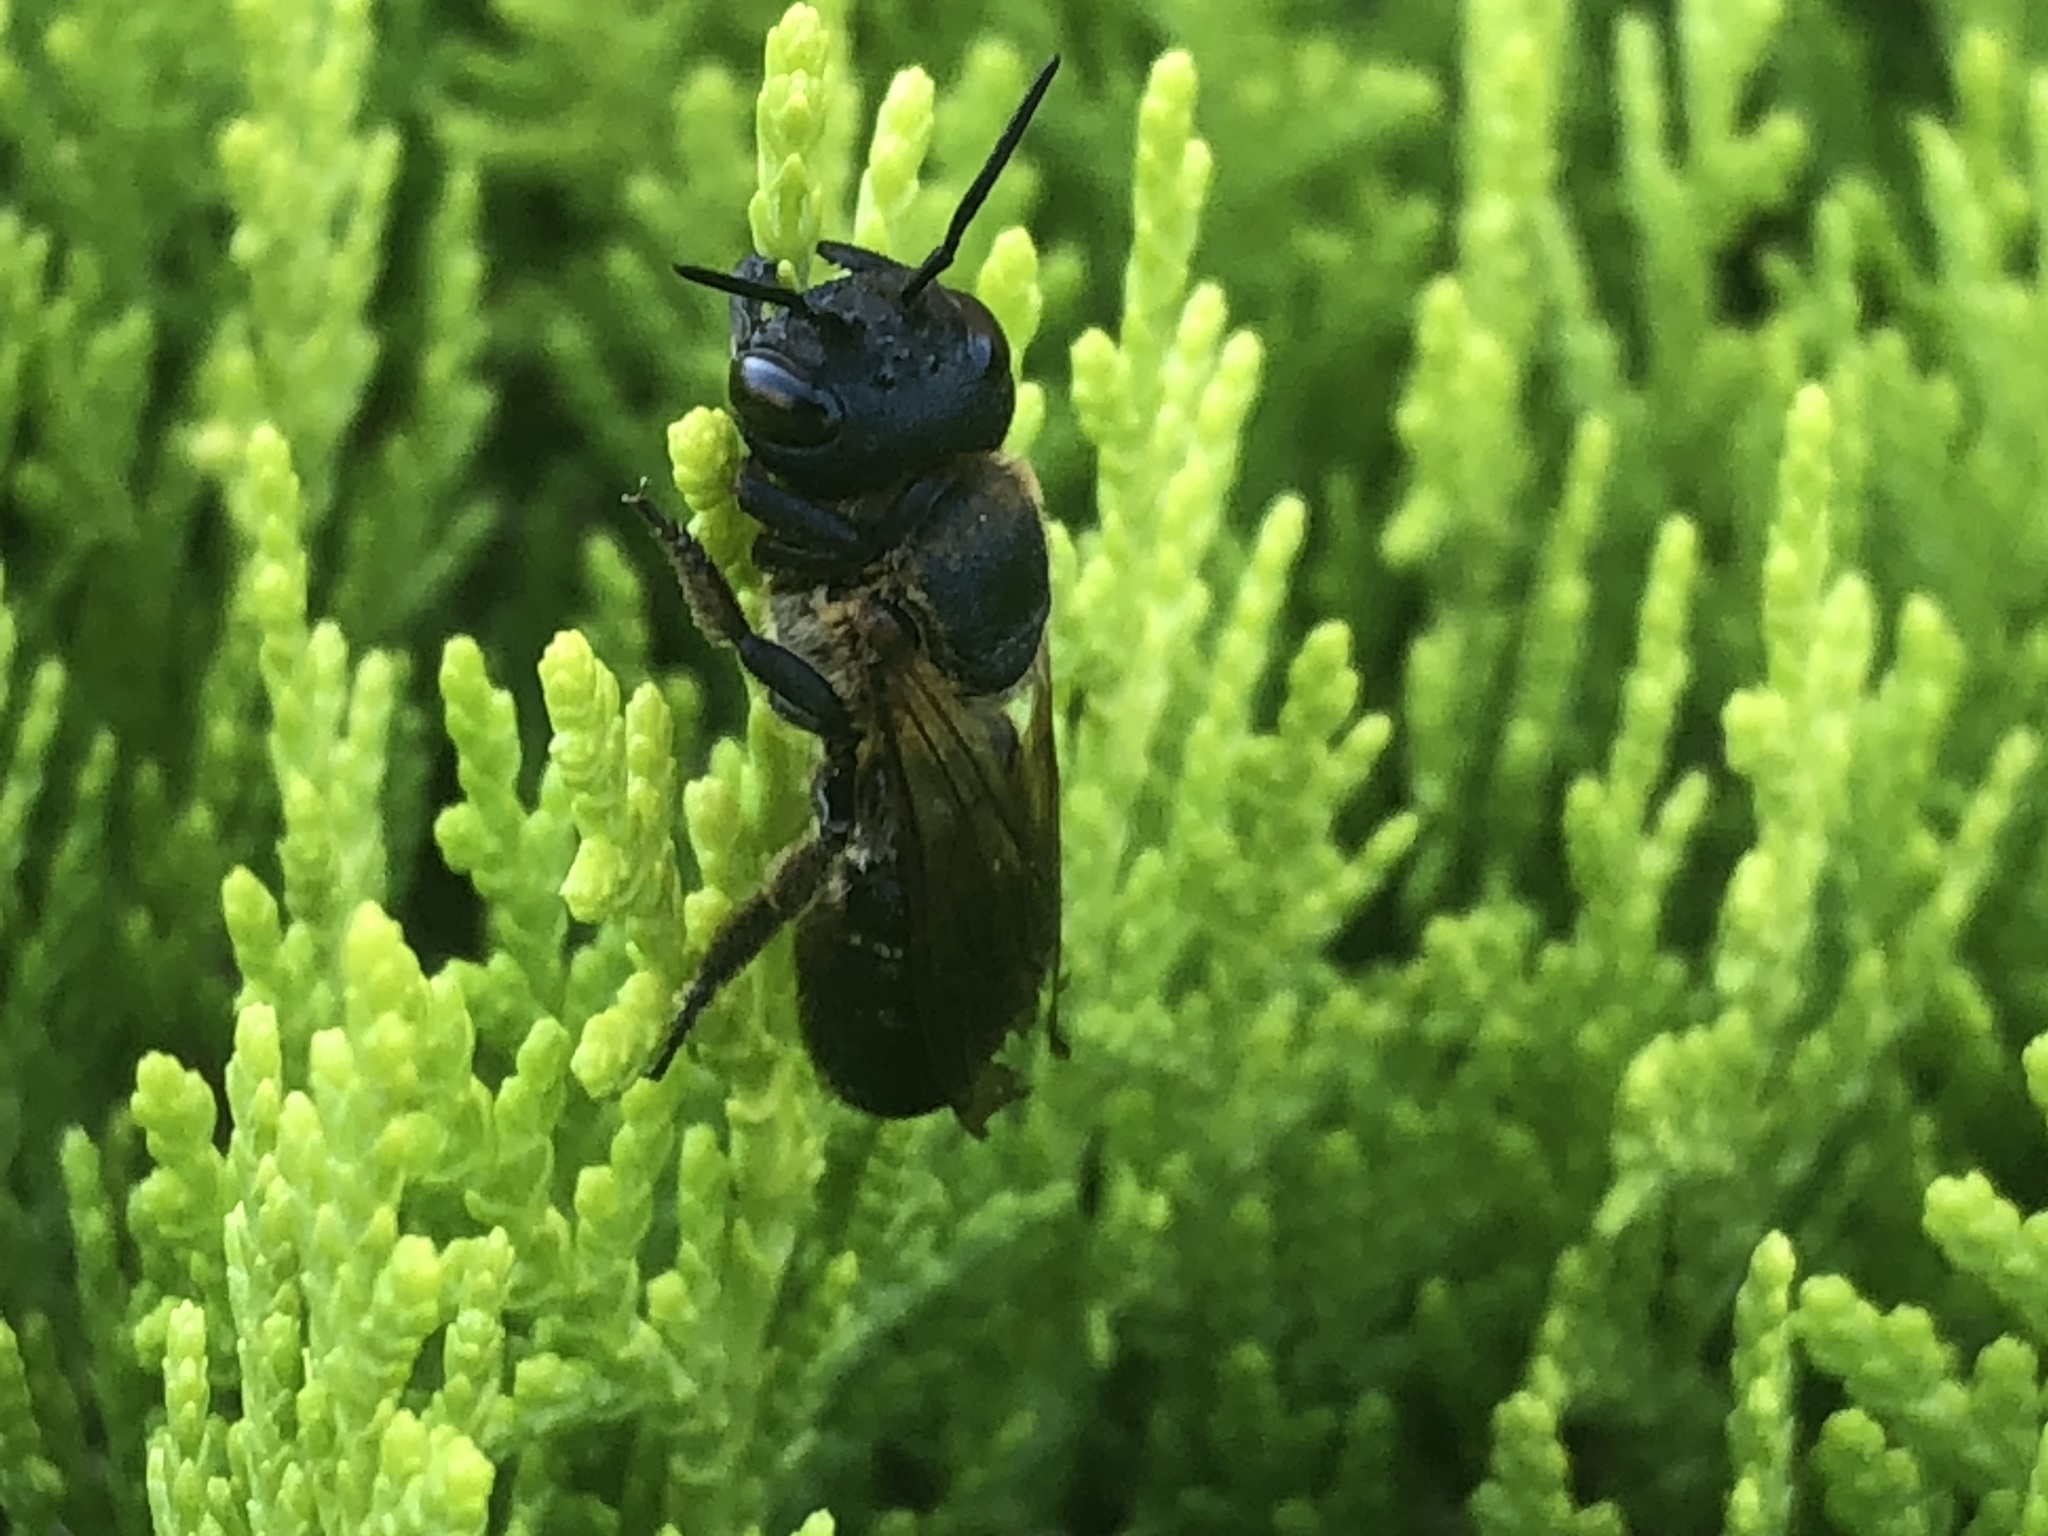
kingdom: Animalia
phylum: Arthropoda
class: Insecta
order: Hymenoptera
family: Megachilidae
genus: Megachile
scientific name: Megachile sculpturalis
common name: Sculptured resin bee
